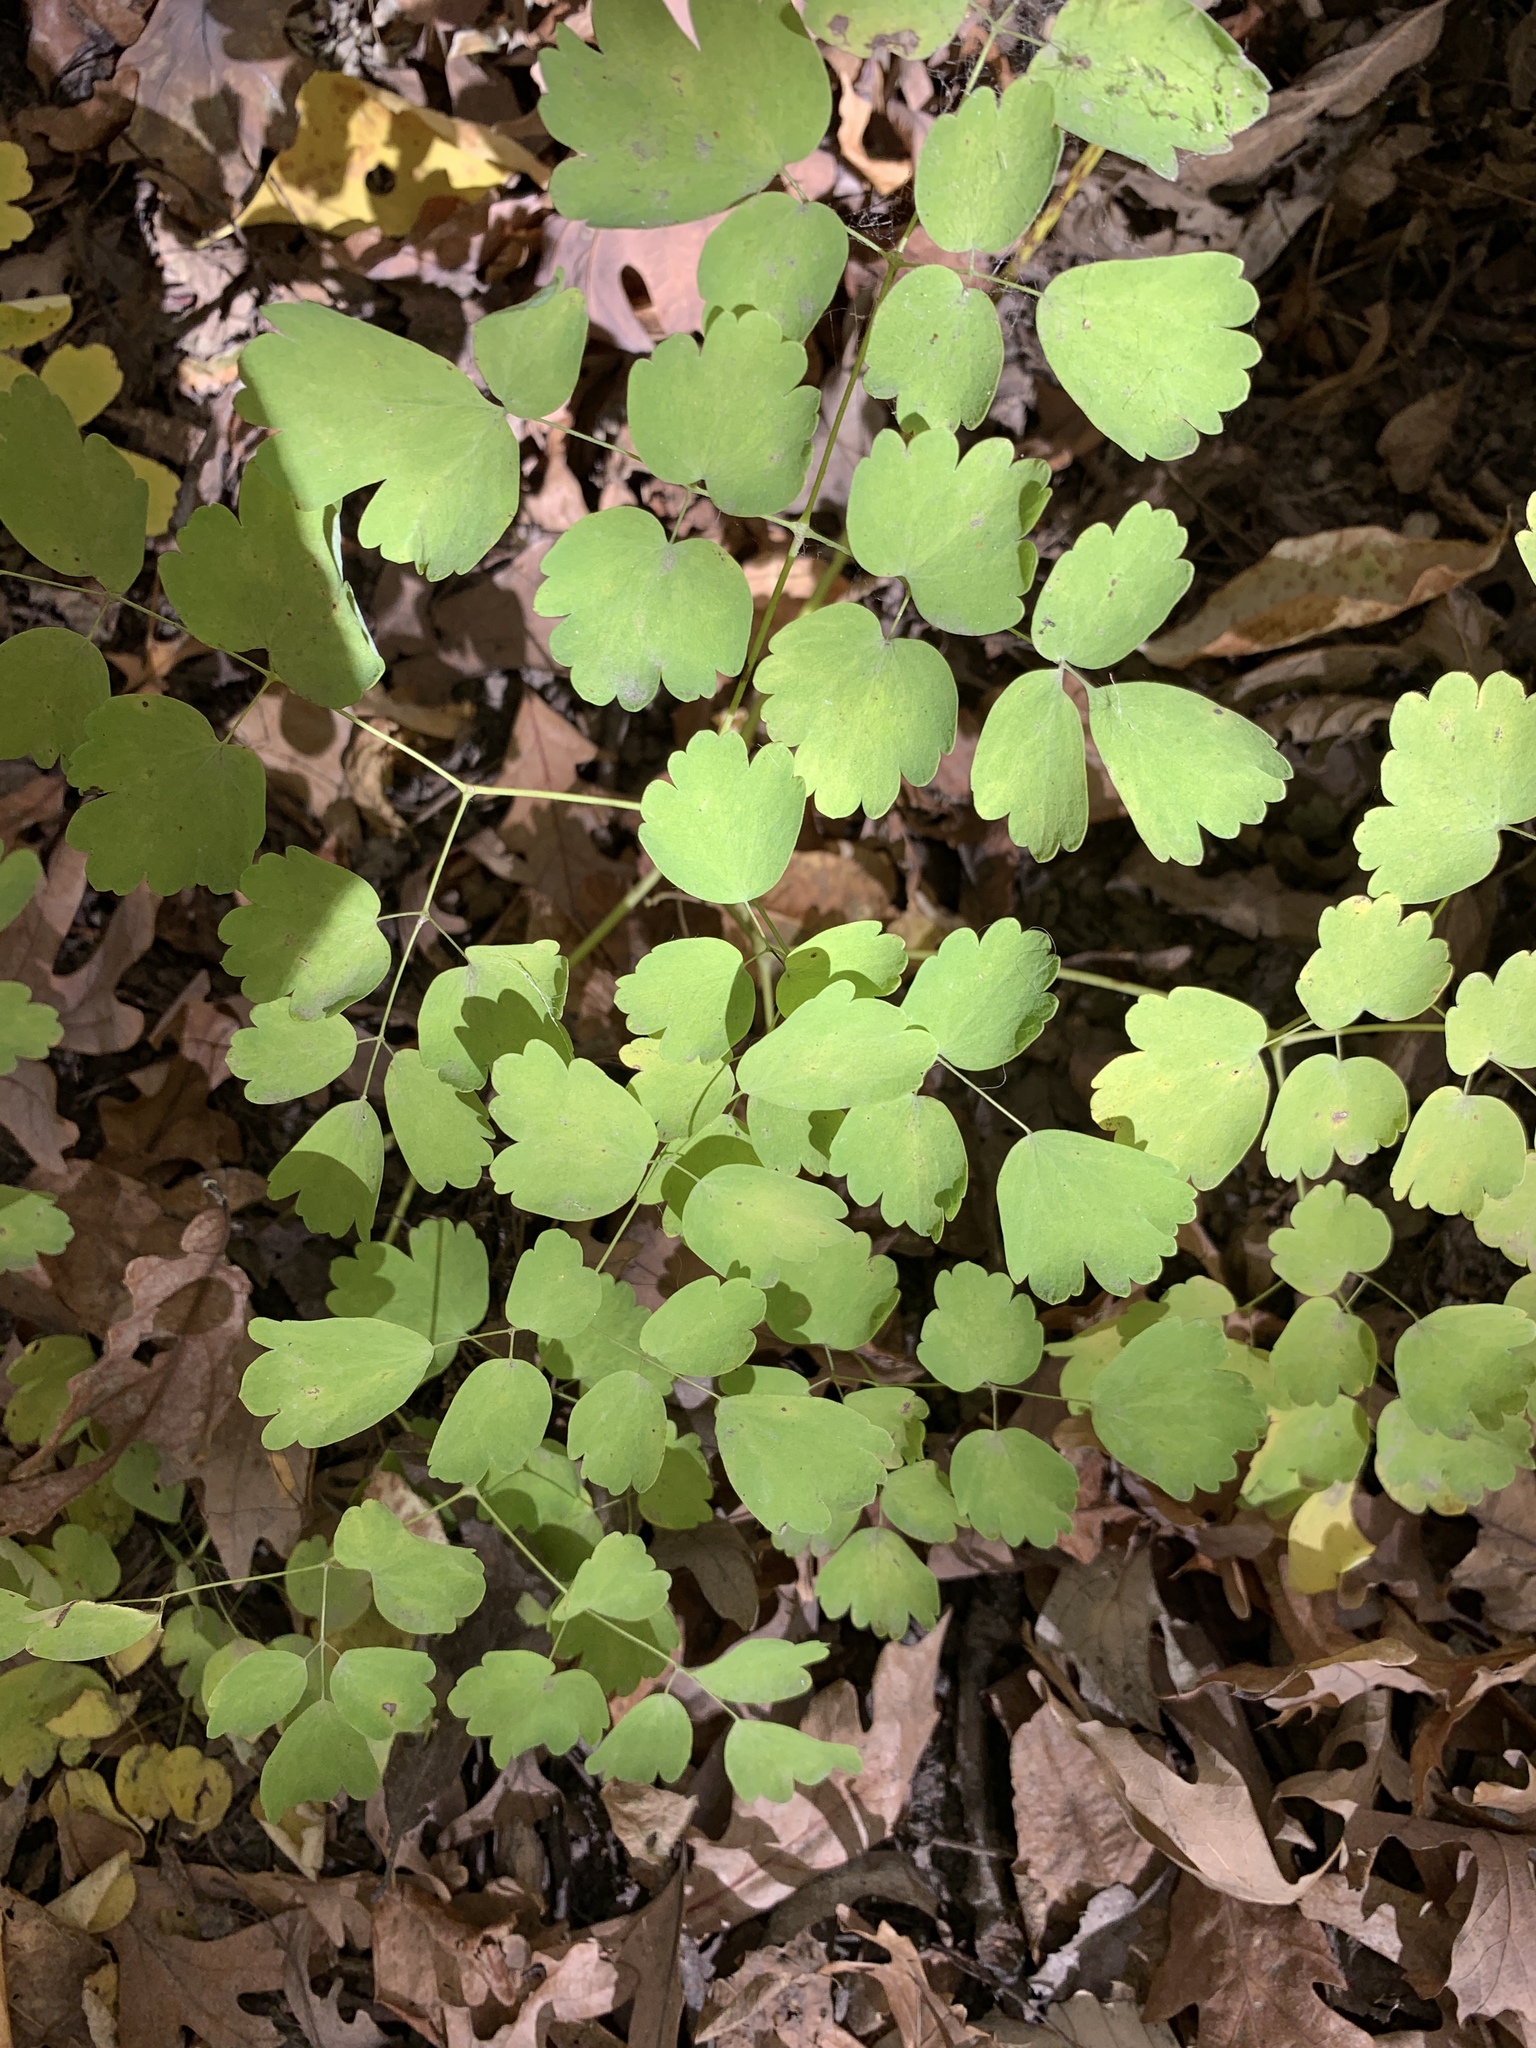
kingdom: Plantae
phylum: Tracheophyta
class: Magnoliopsida
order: Ranunculales
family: Ranunculaceae
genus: Thalictrum
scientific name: Thalictrum dioicum
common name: Early meadow-rue
